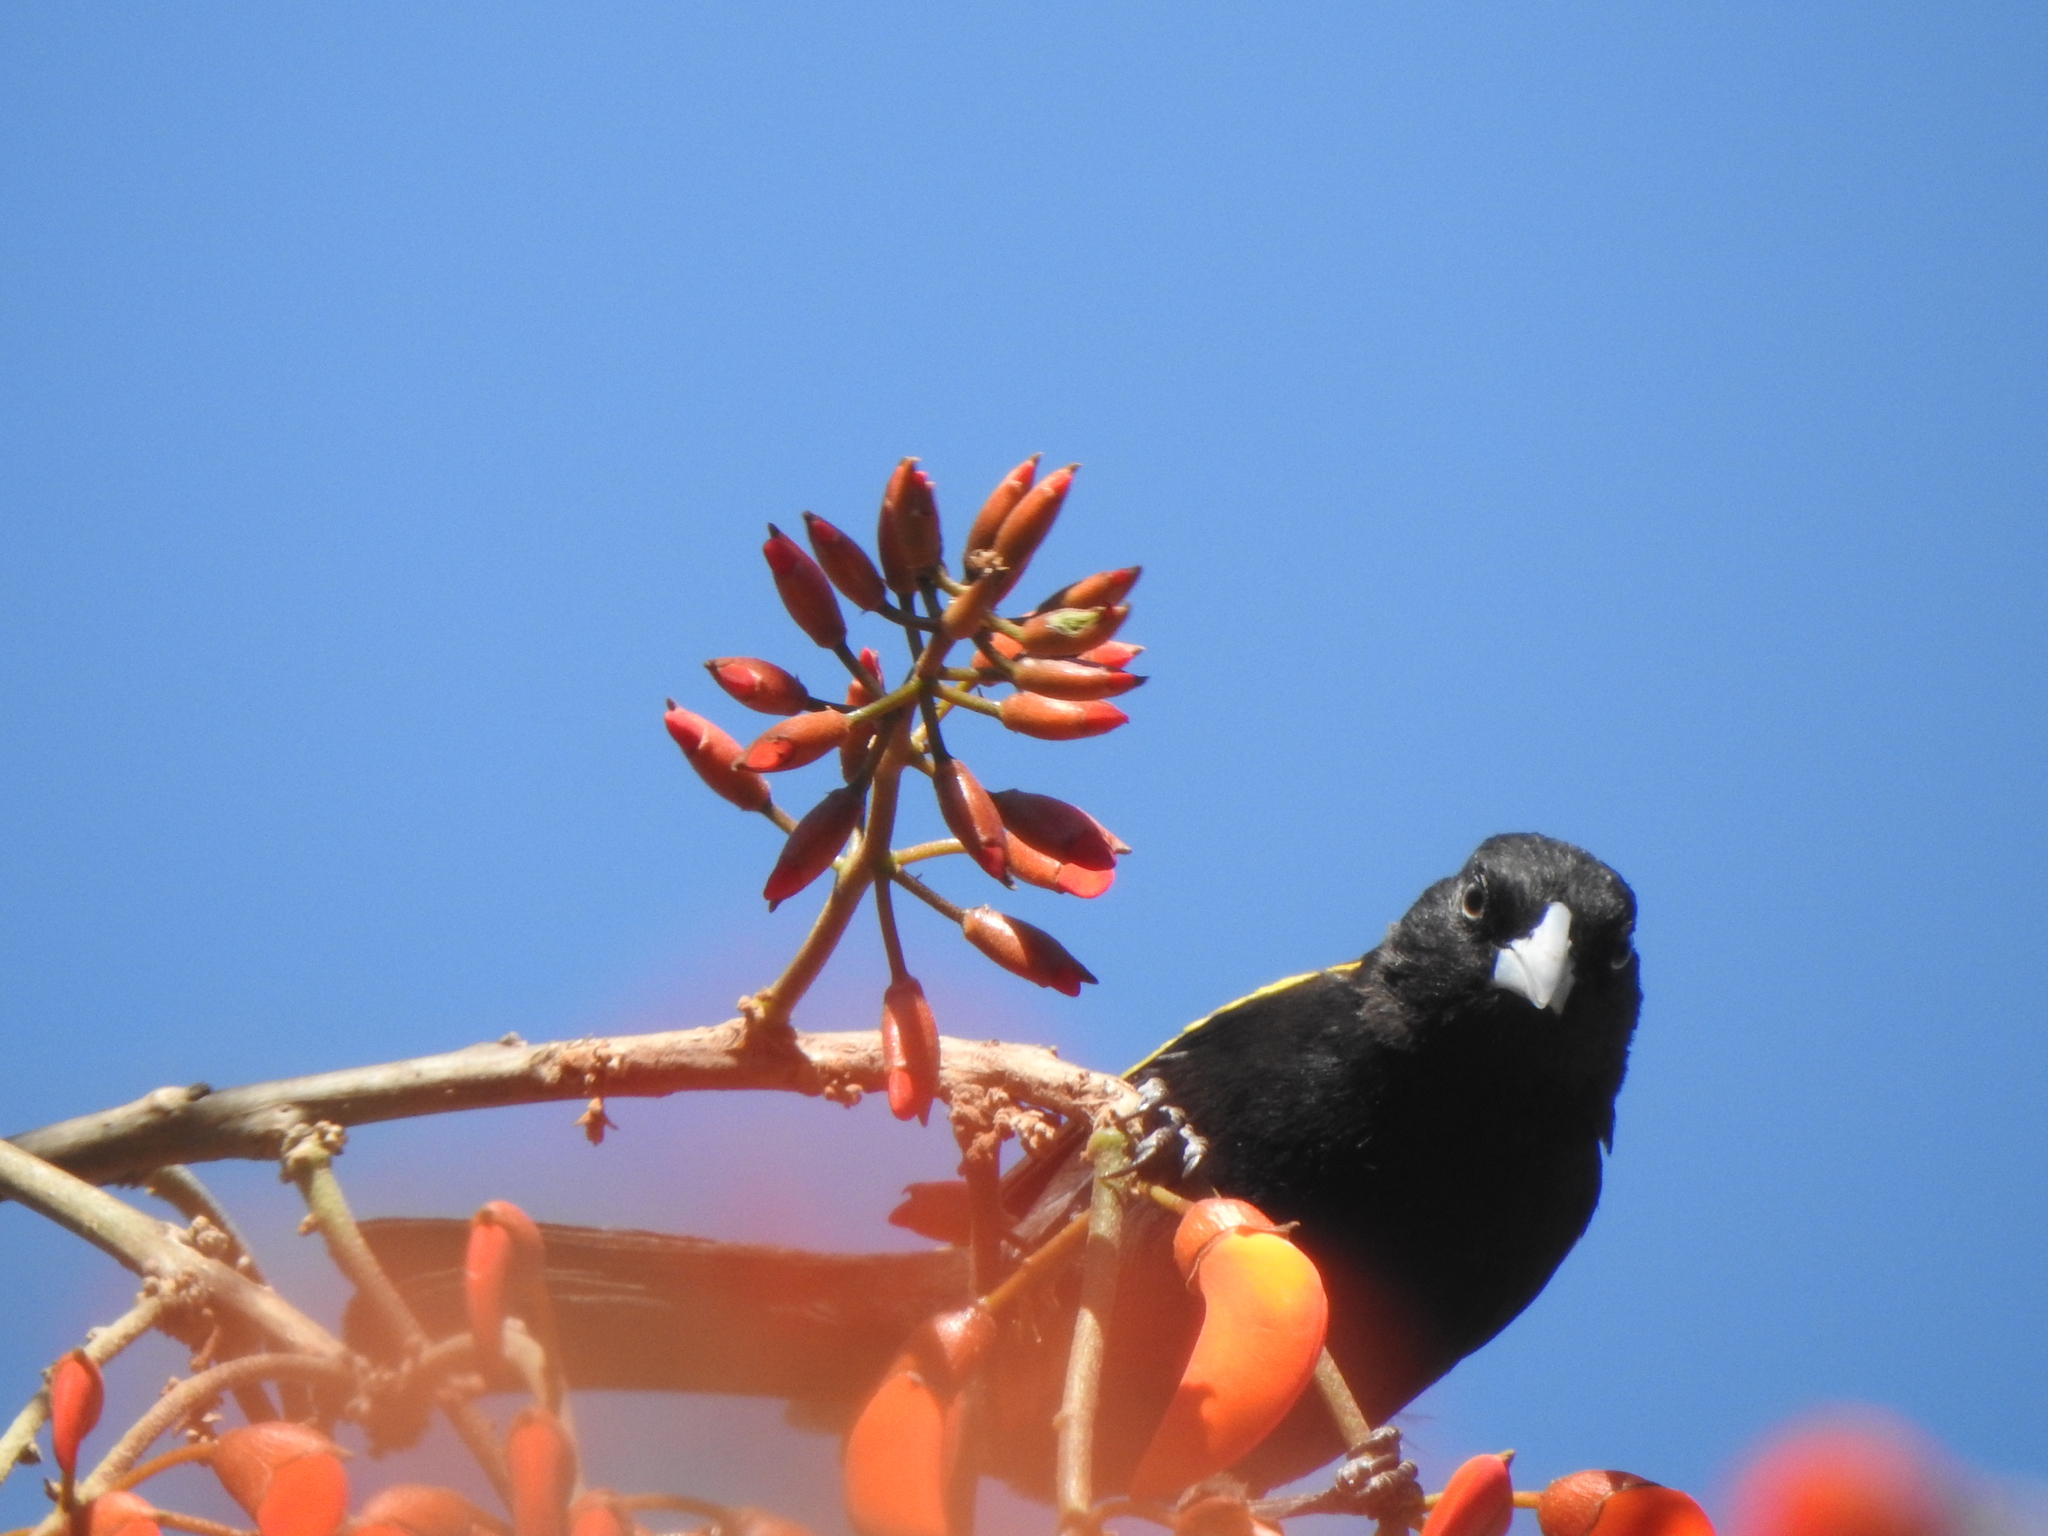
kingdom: Animalia
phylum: Chordata
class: Aves
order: Passeriformes
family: Icteridae
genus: Cacicus
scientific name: Cacicus chrysopterus
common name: Golden-winged cacique
